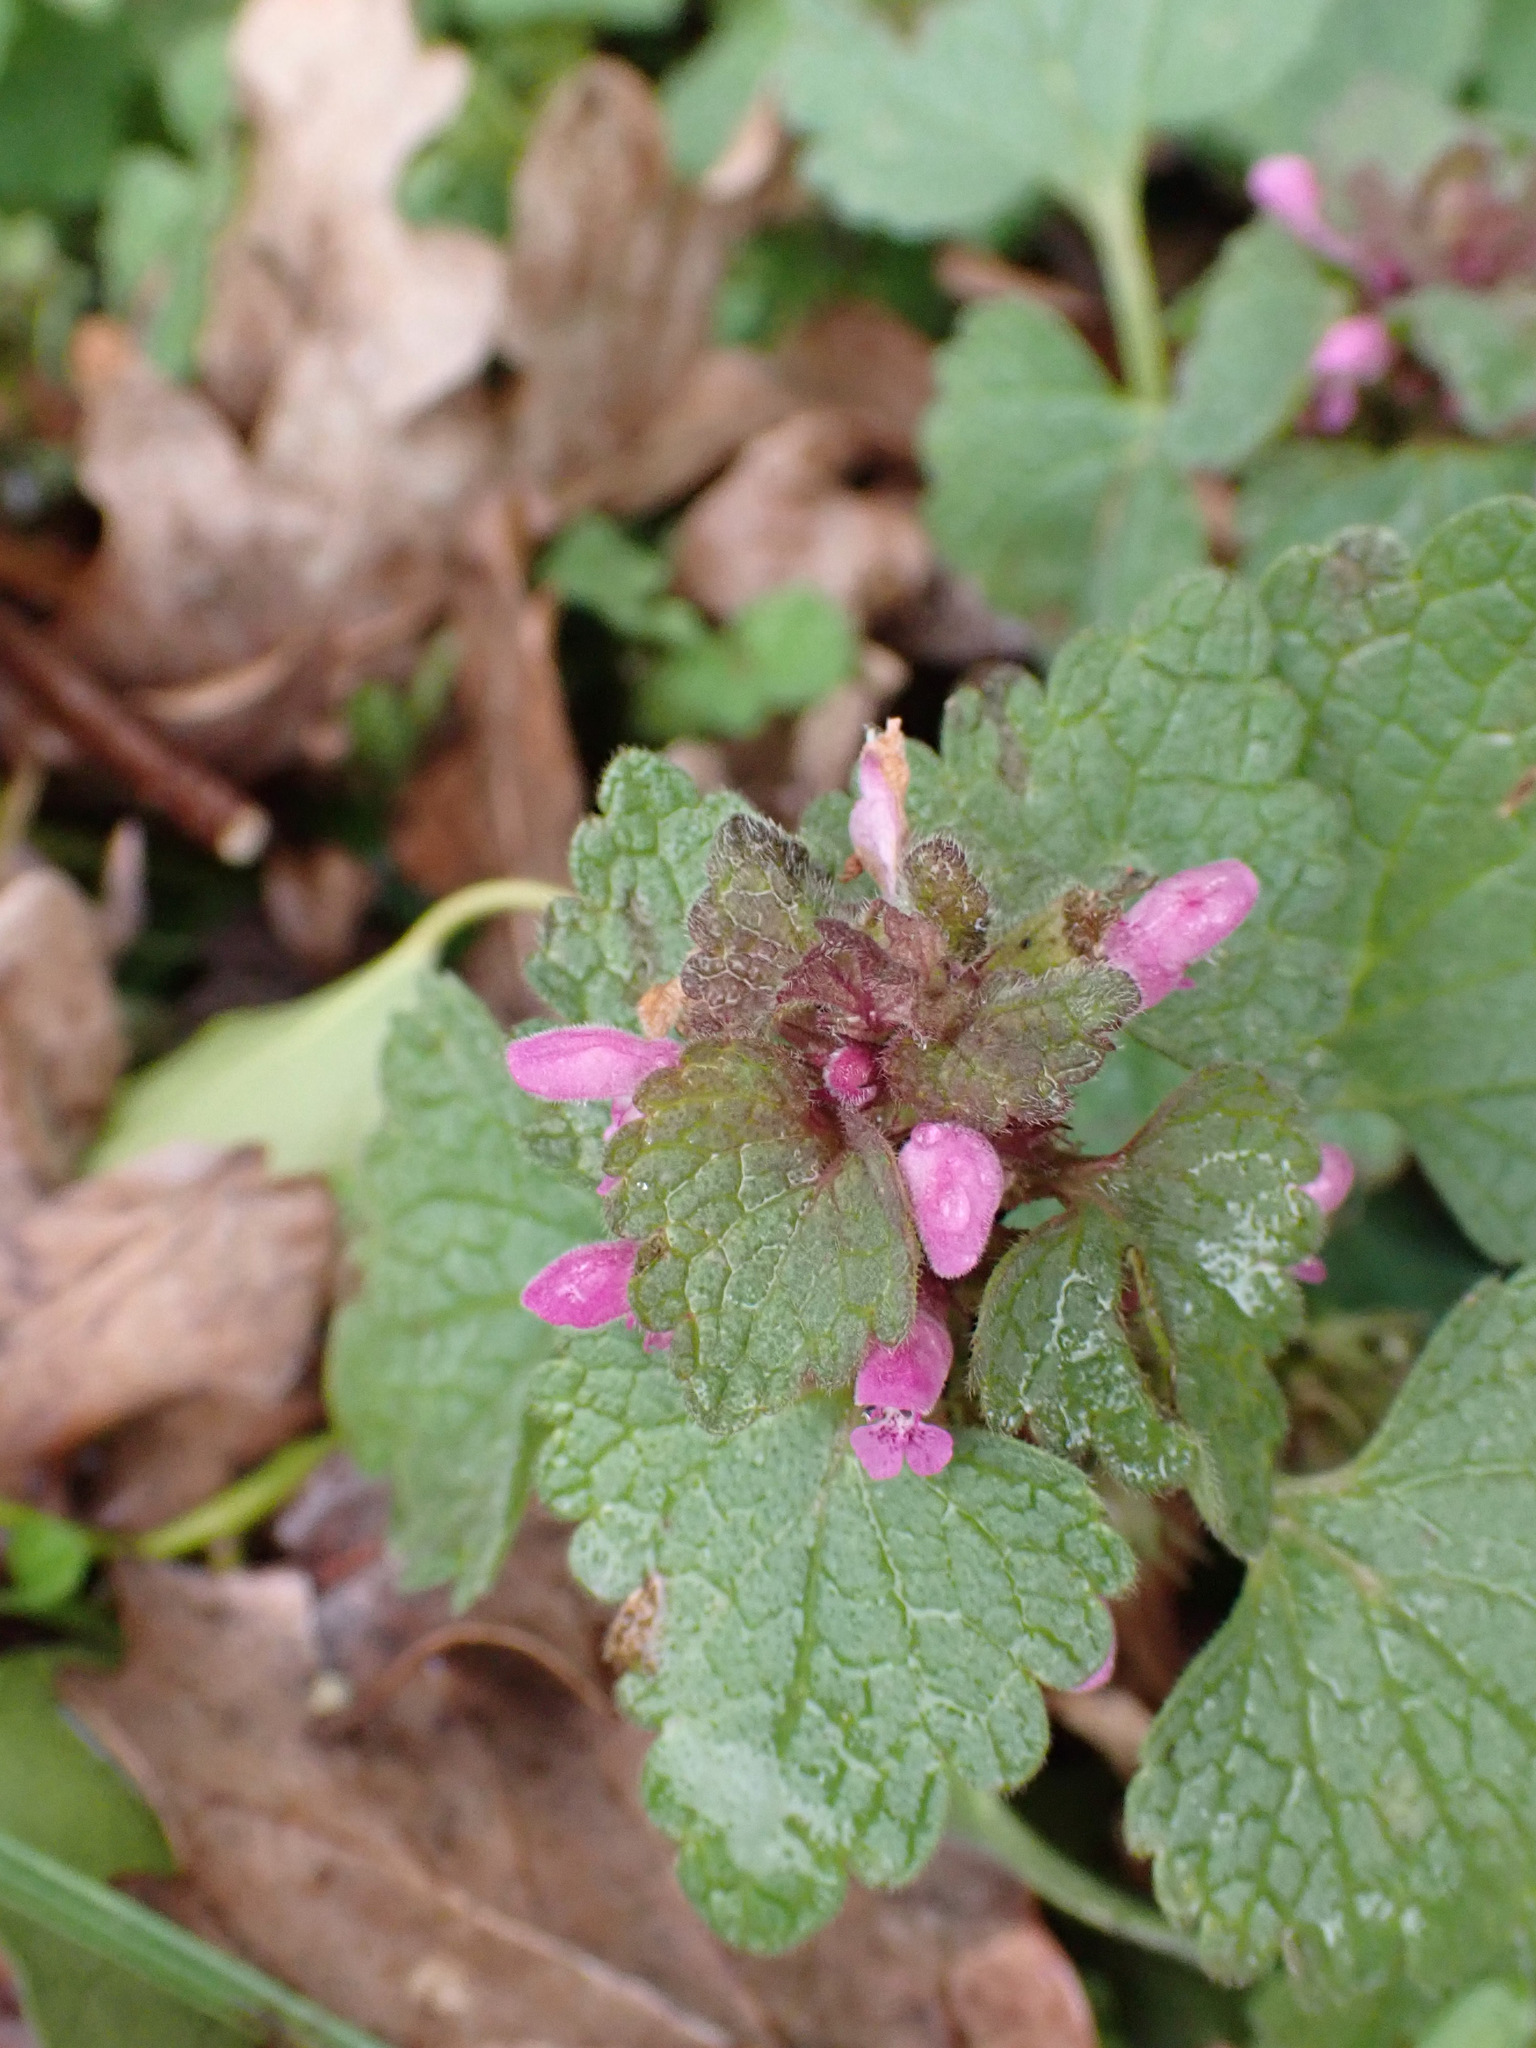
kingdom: Plantae
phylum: Tracheophyta
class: Magnoliopsida
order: Lamiales
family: Lamiaceae
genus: Lamium
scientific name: Lamium purpureum
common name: Red dead-nettle
